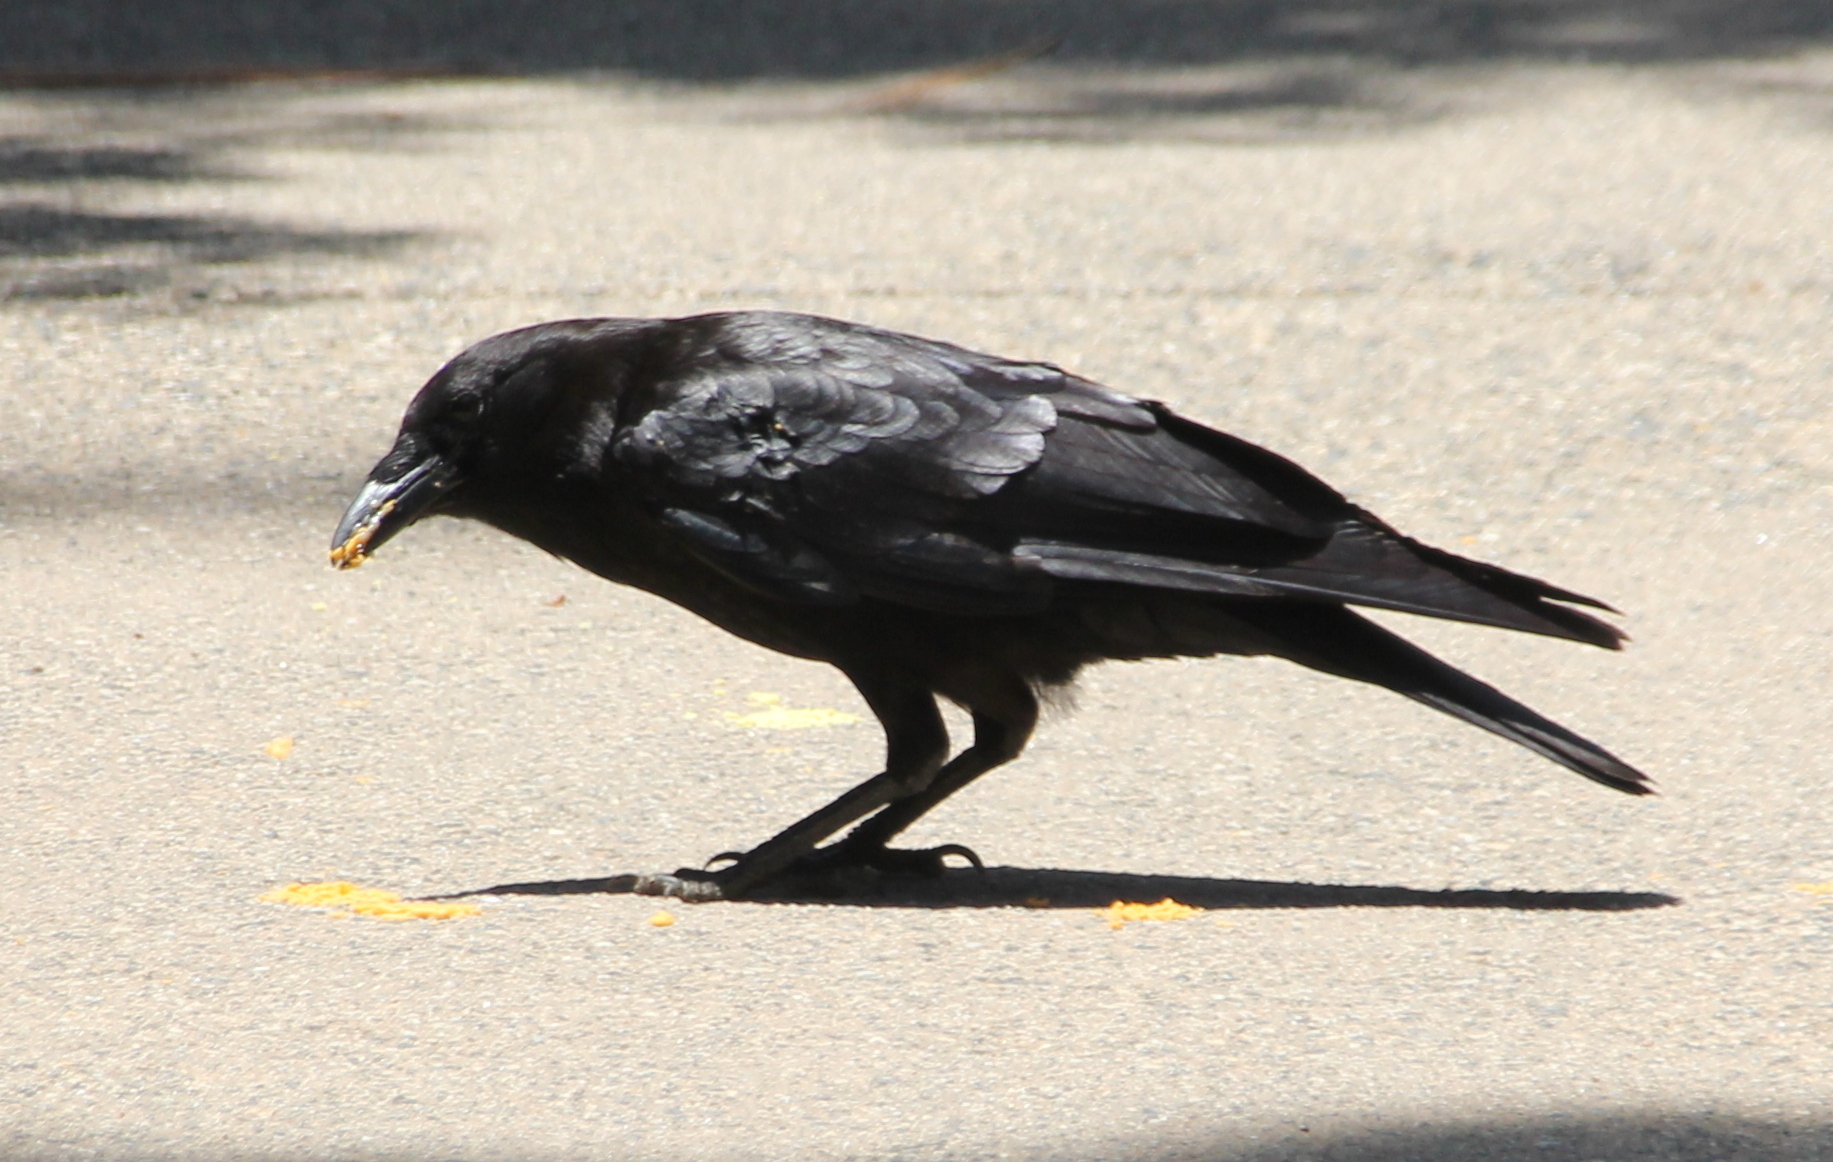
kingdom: Animalia
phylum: Chordata
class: Aves
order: Passeriformes
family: Corvidae
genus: Corvus
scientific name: Corvus brachyrhynchos
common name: American crow
